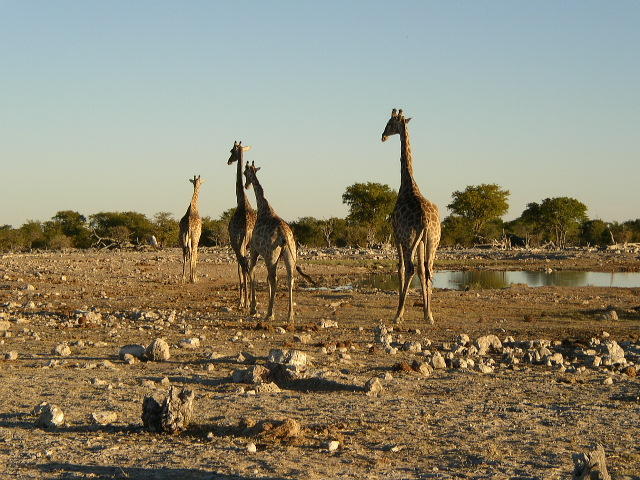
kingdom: Animalia
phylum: Chordata
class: Mammalia
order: Artiodactyla
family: Giraffidae
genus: Giraffa
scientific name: Giraffa giraffa
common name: Southern giraffe
